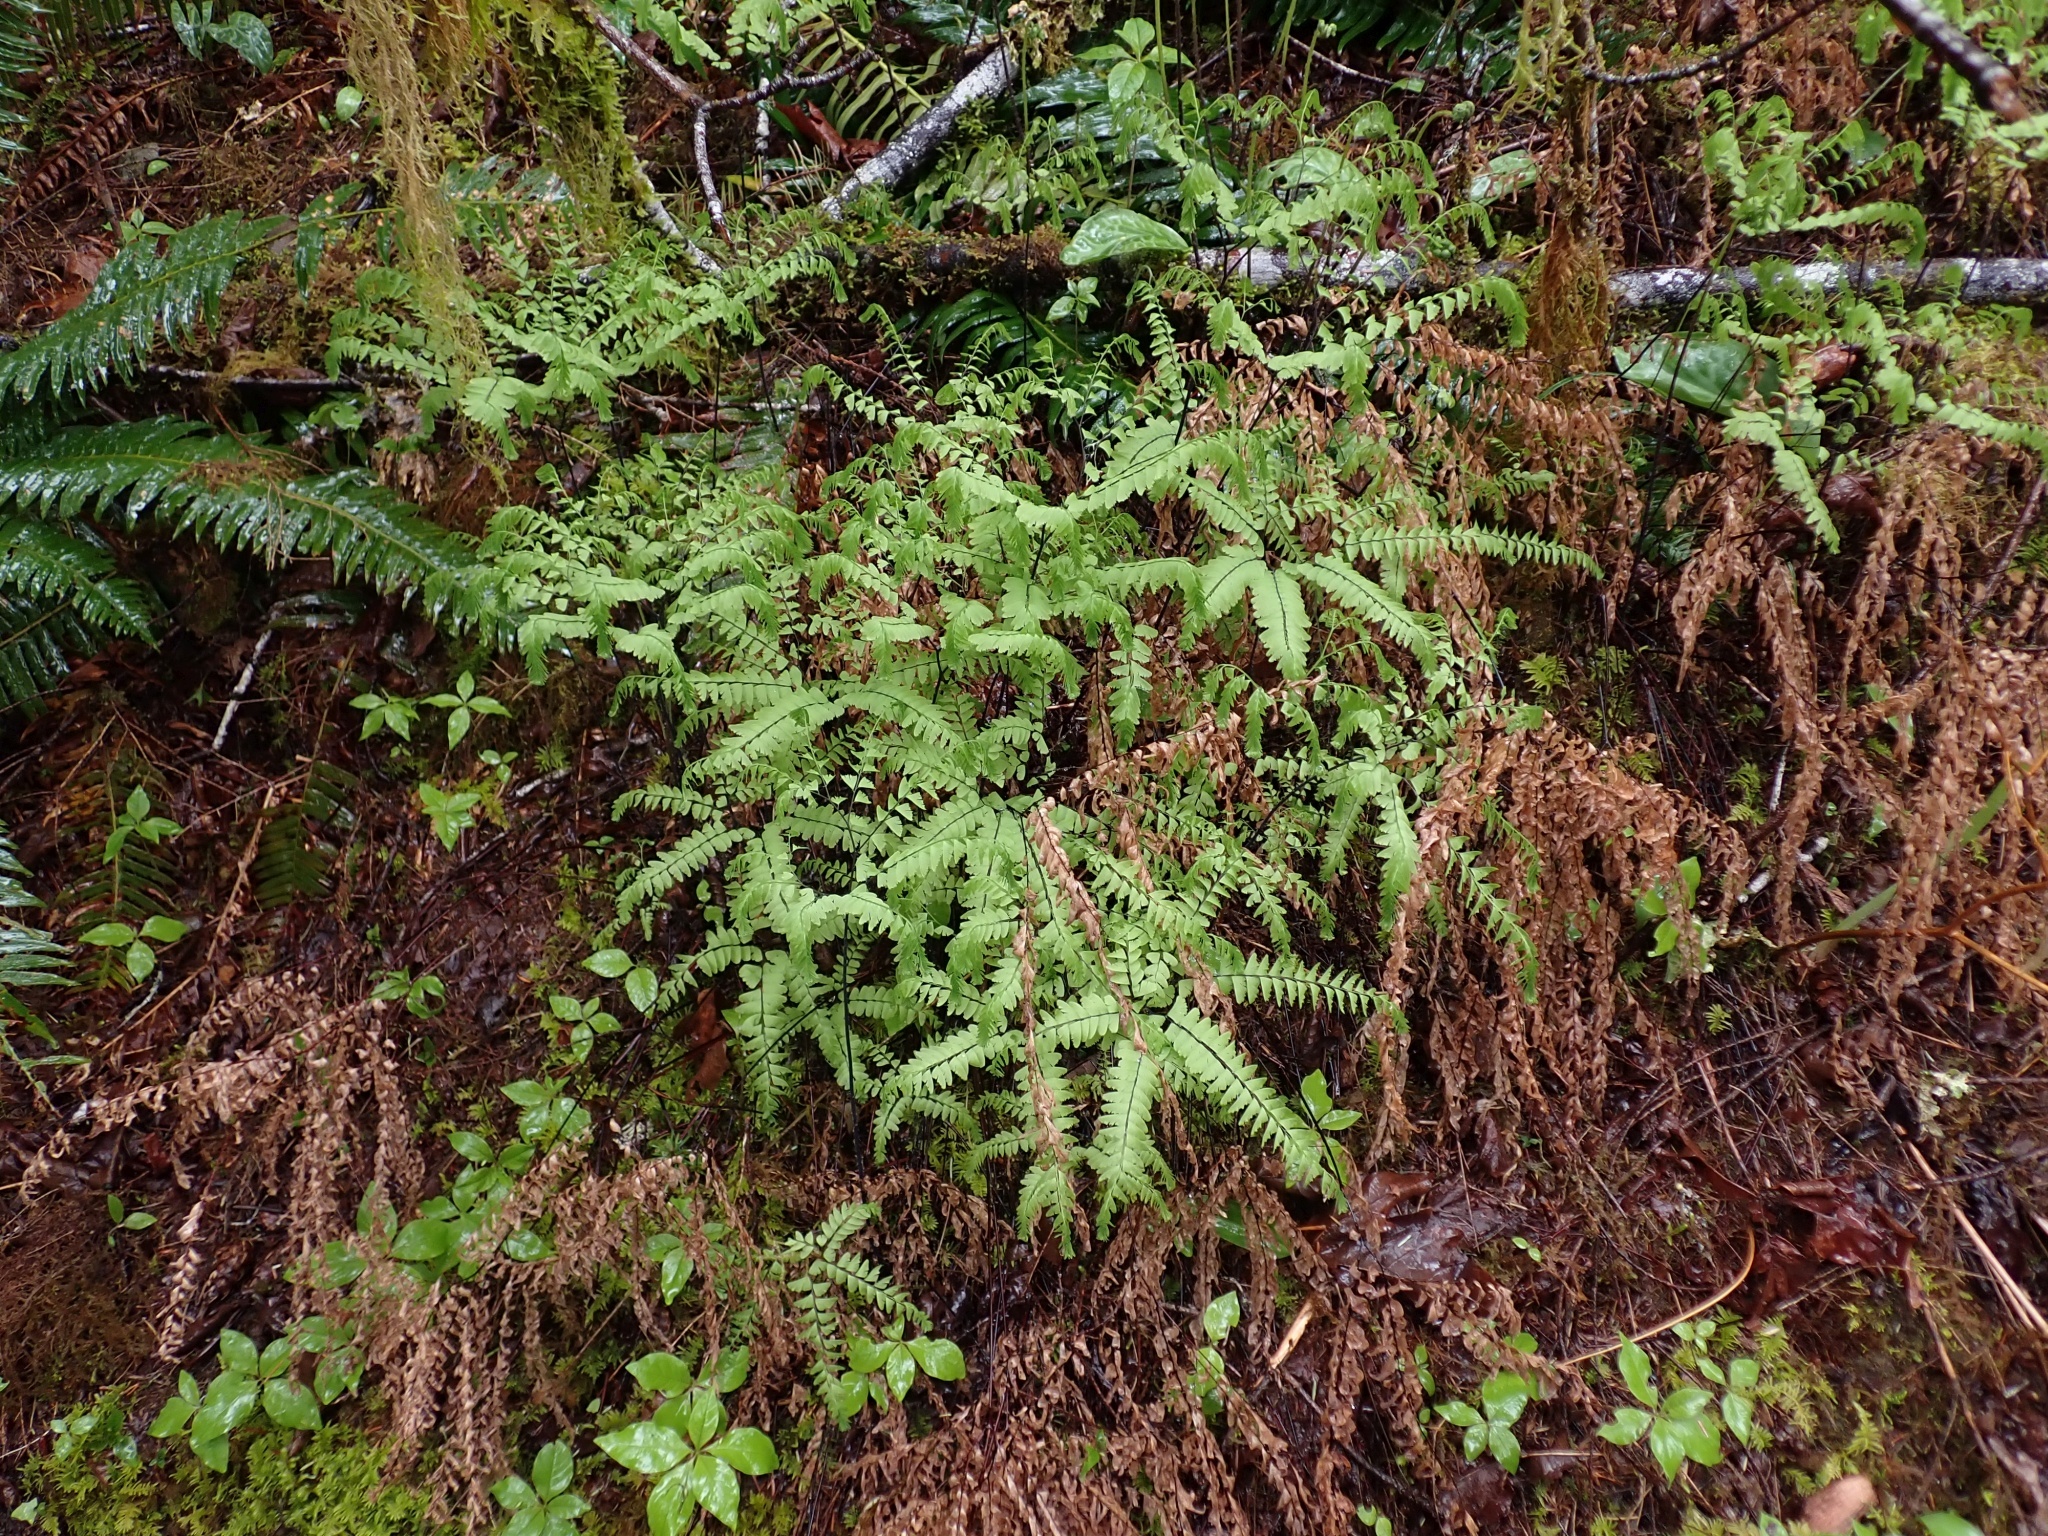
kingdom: Plantae
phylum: Tracheophyta
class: Polypodiopsida
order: Polypodiales
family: Pteridaceae
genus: Adiantum
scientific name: Adiantum aleuticum
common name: Aleutian maidenhair fern
